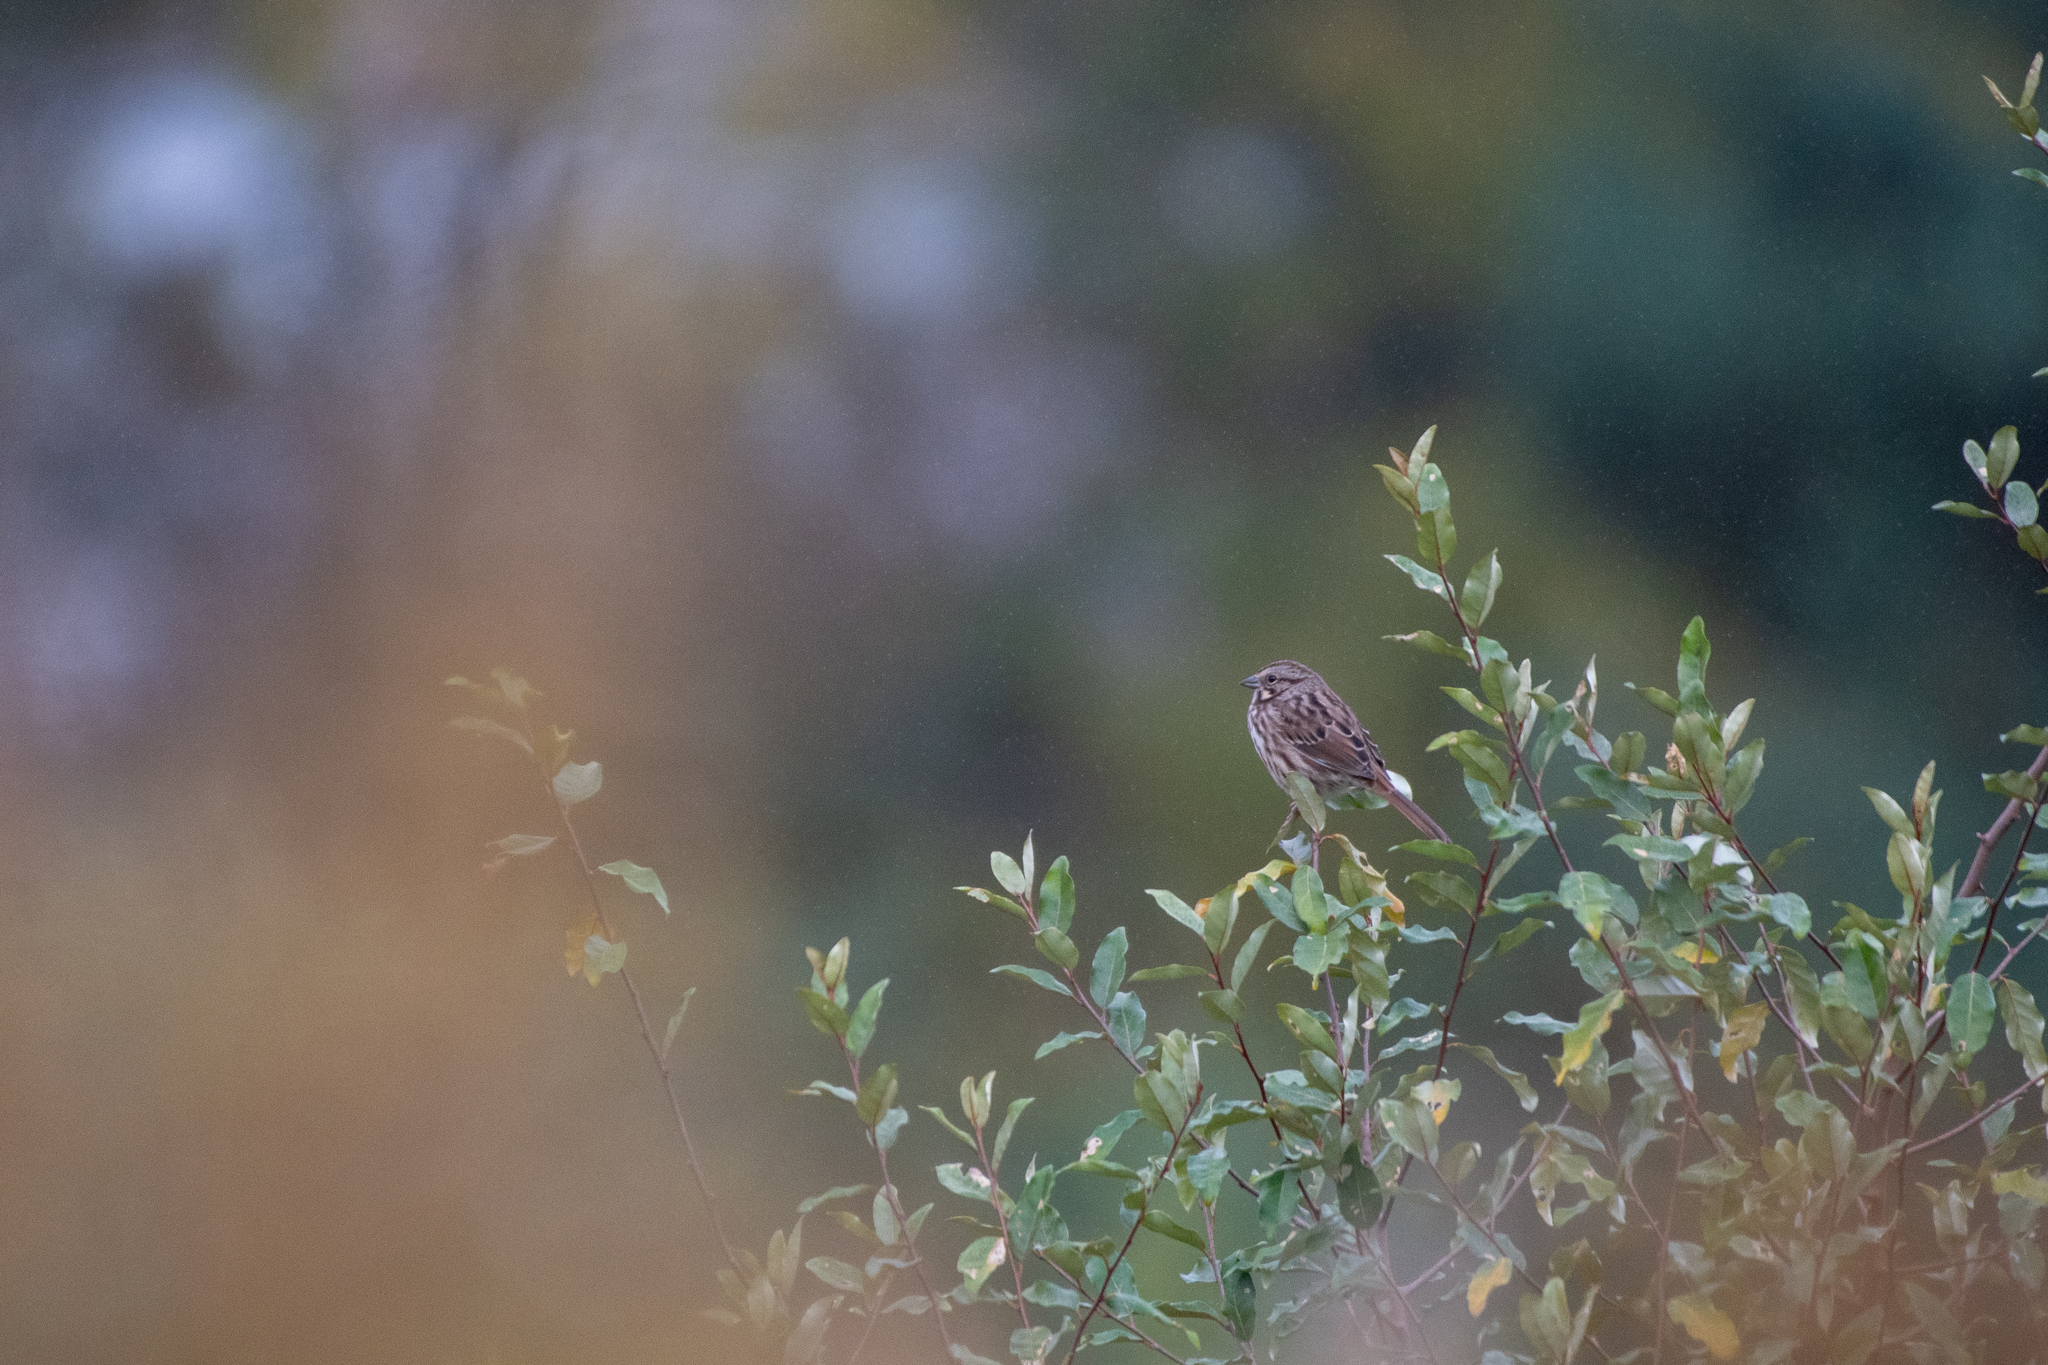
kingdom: Animalia
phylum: Chordata
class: Aves
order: Passeriformes
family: Passerellidae
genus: Melospiza
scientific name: Melospiza melodia
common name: Song sparrow
